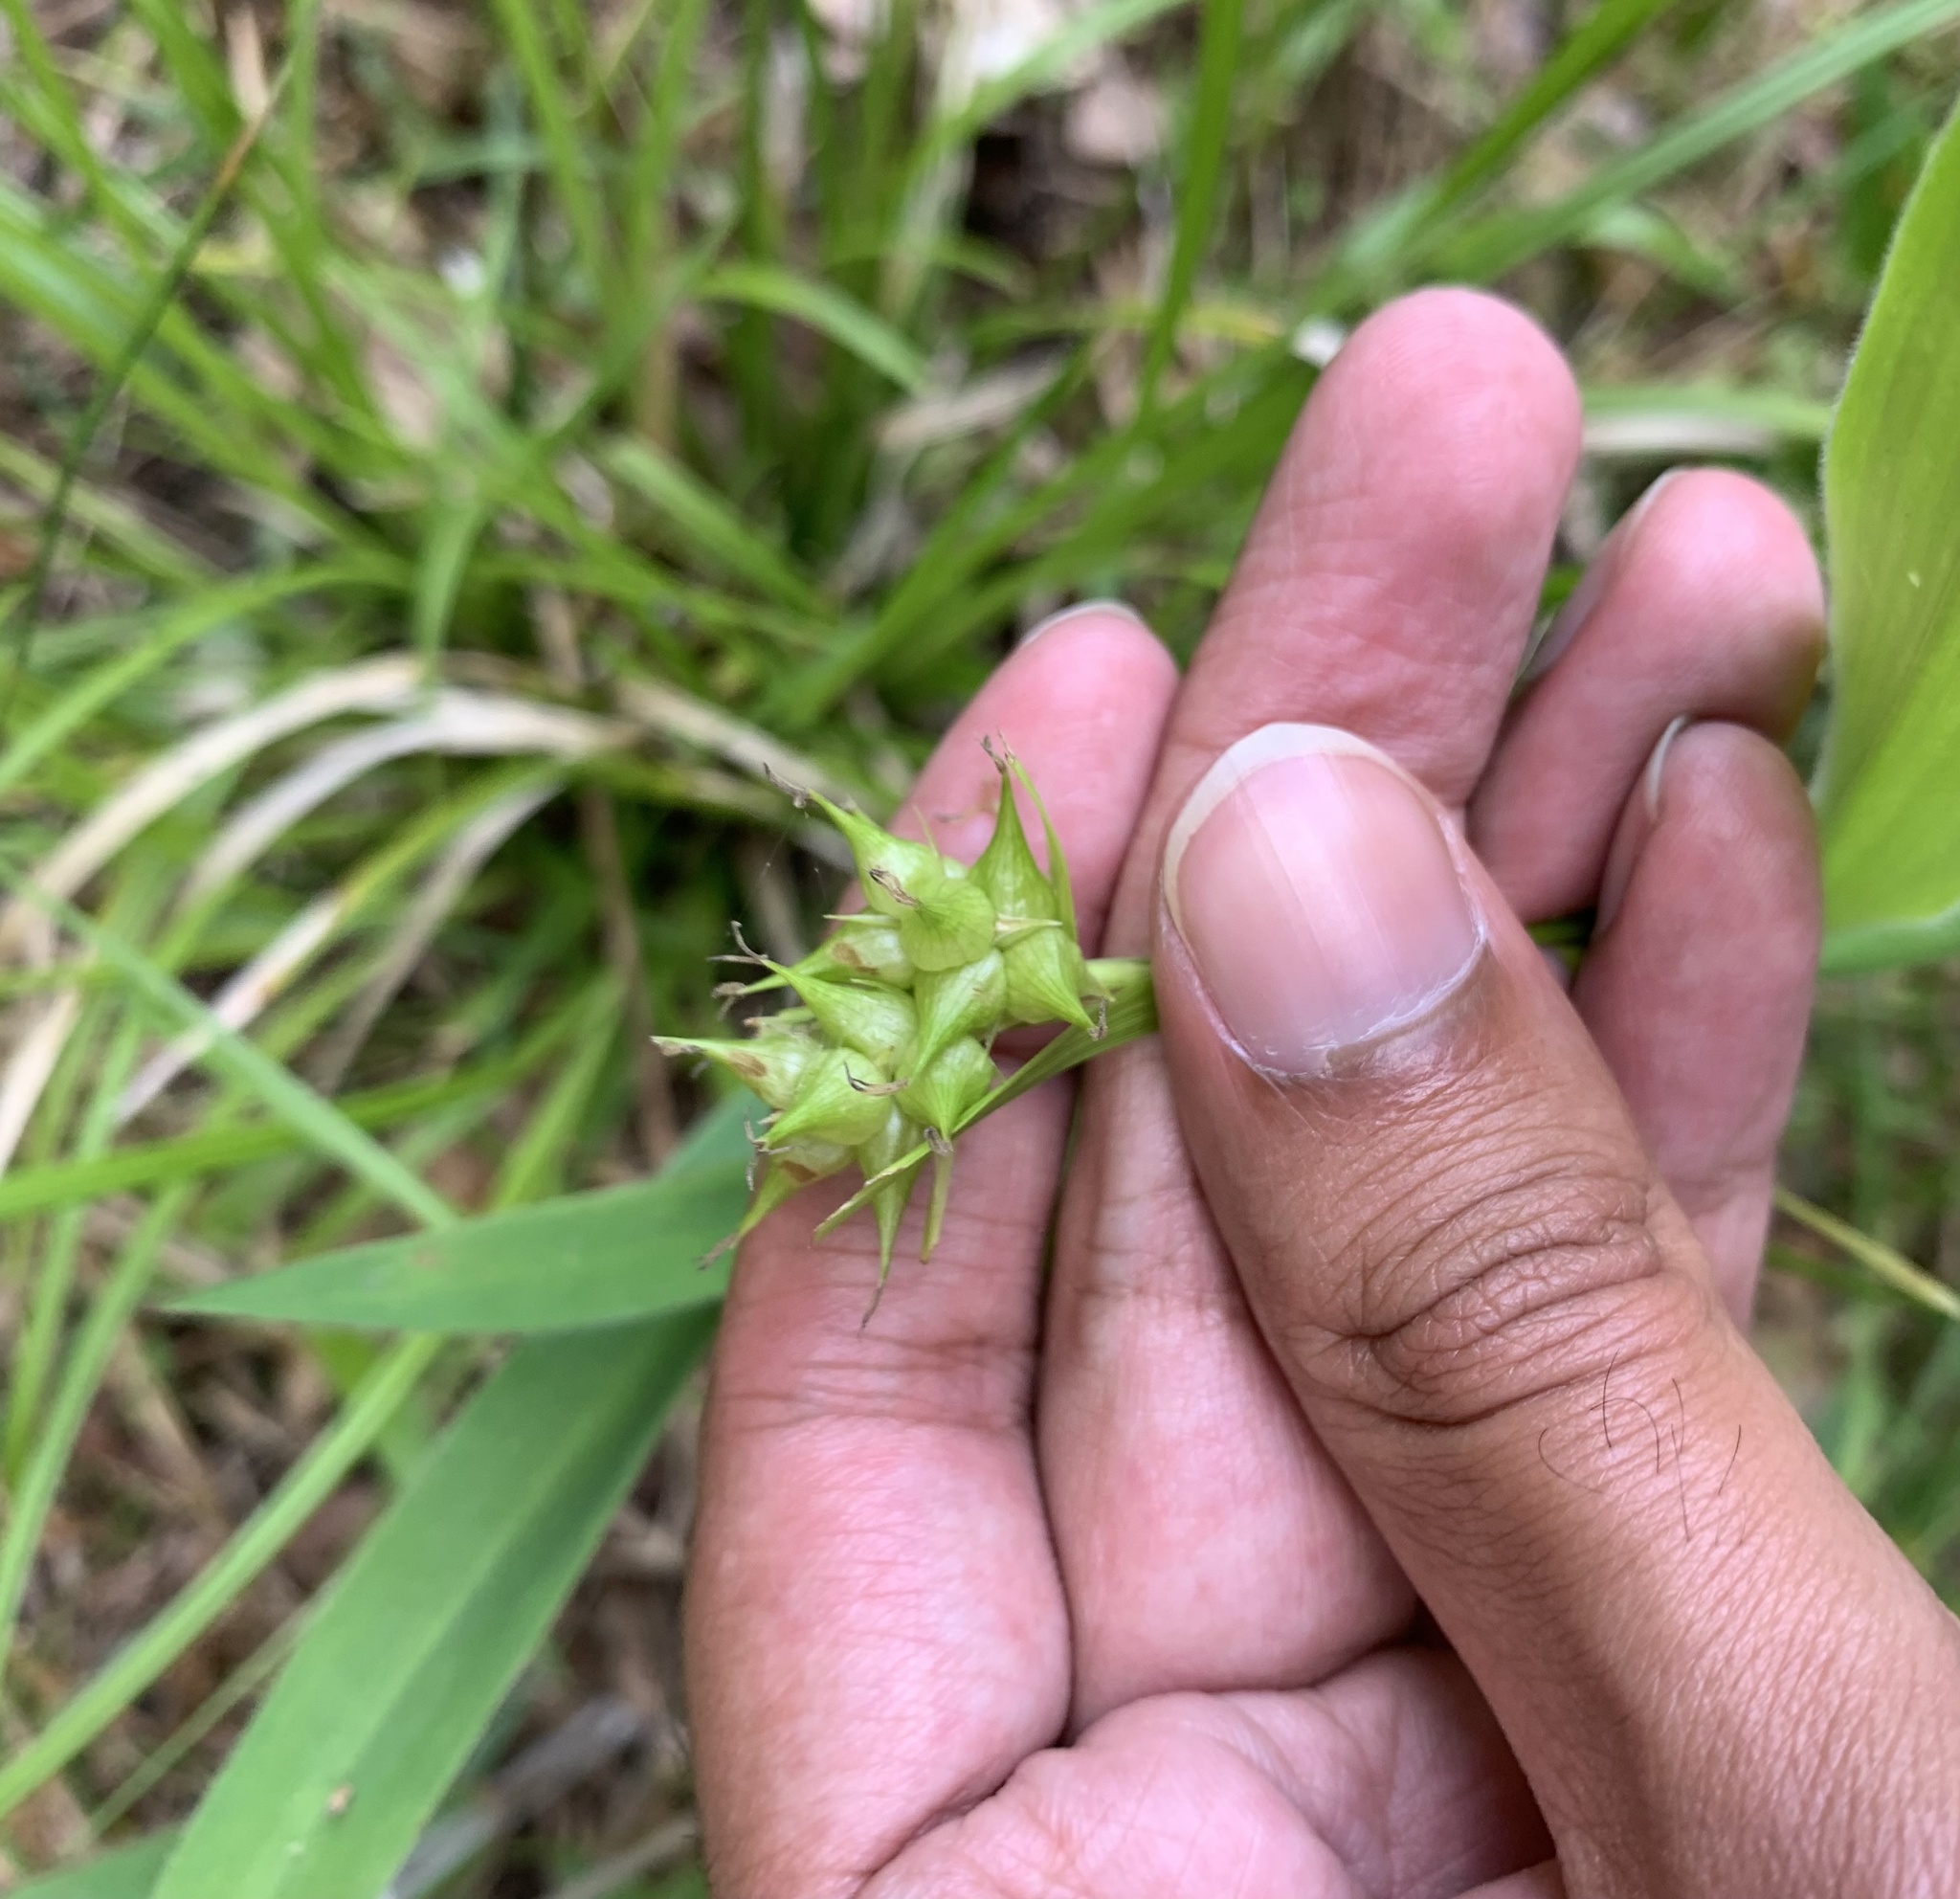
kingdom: Plantae
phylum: Tracheophyta
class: Liliopsida
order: Poales
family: Cyperaceae
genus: Carex
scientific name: Carex intumescens
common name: Greater bladder sedge
